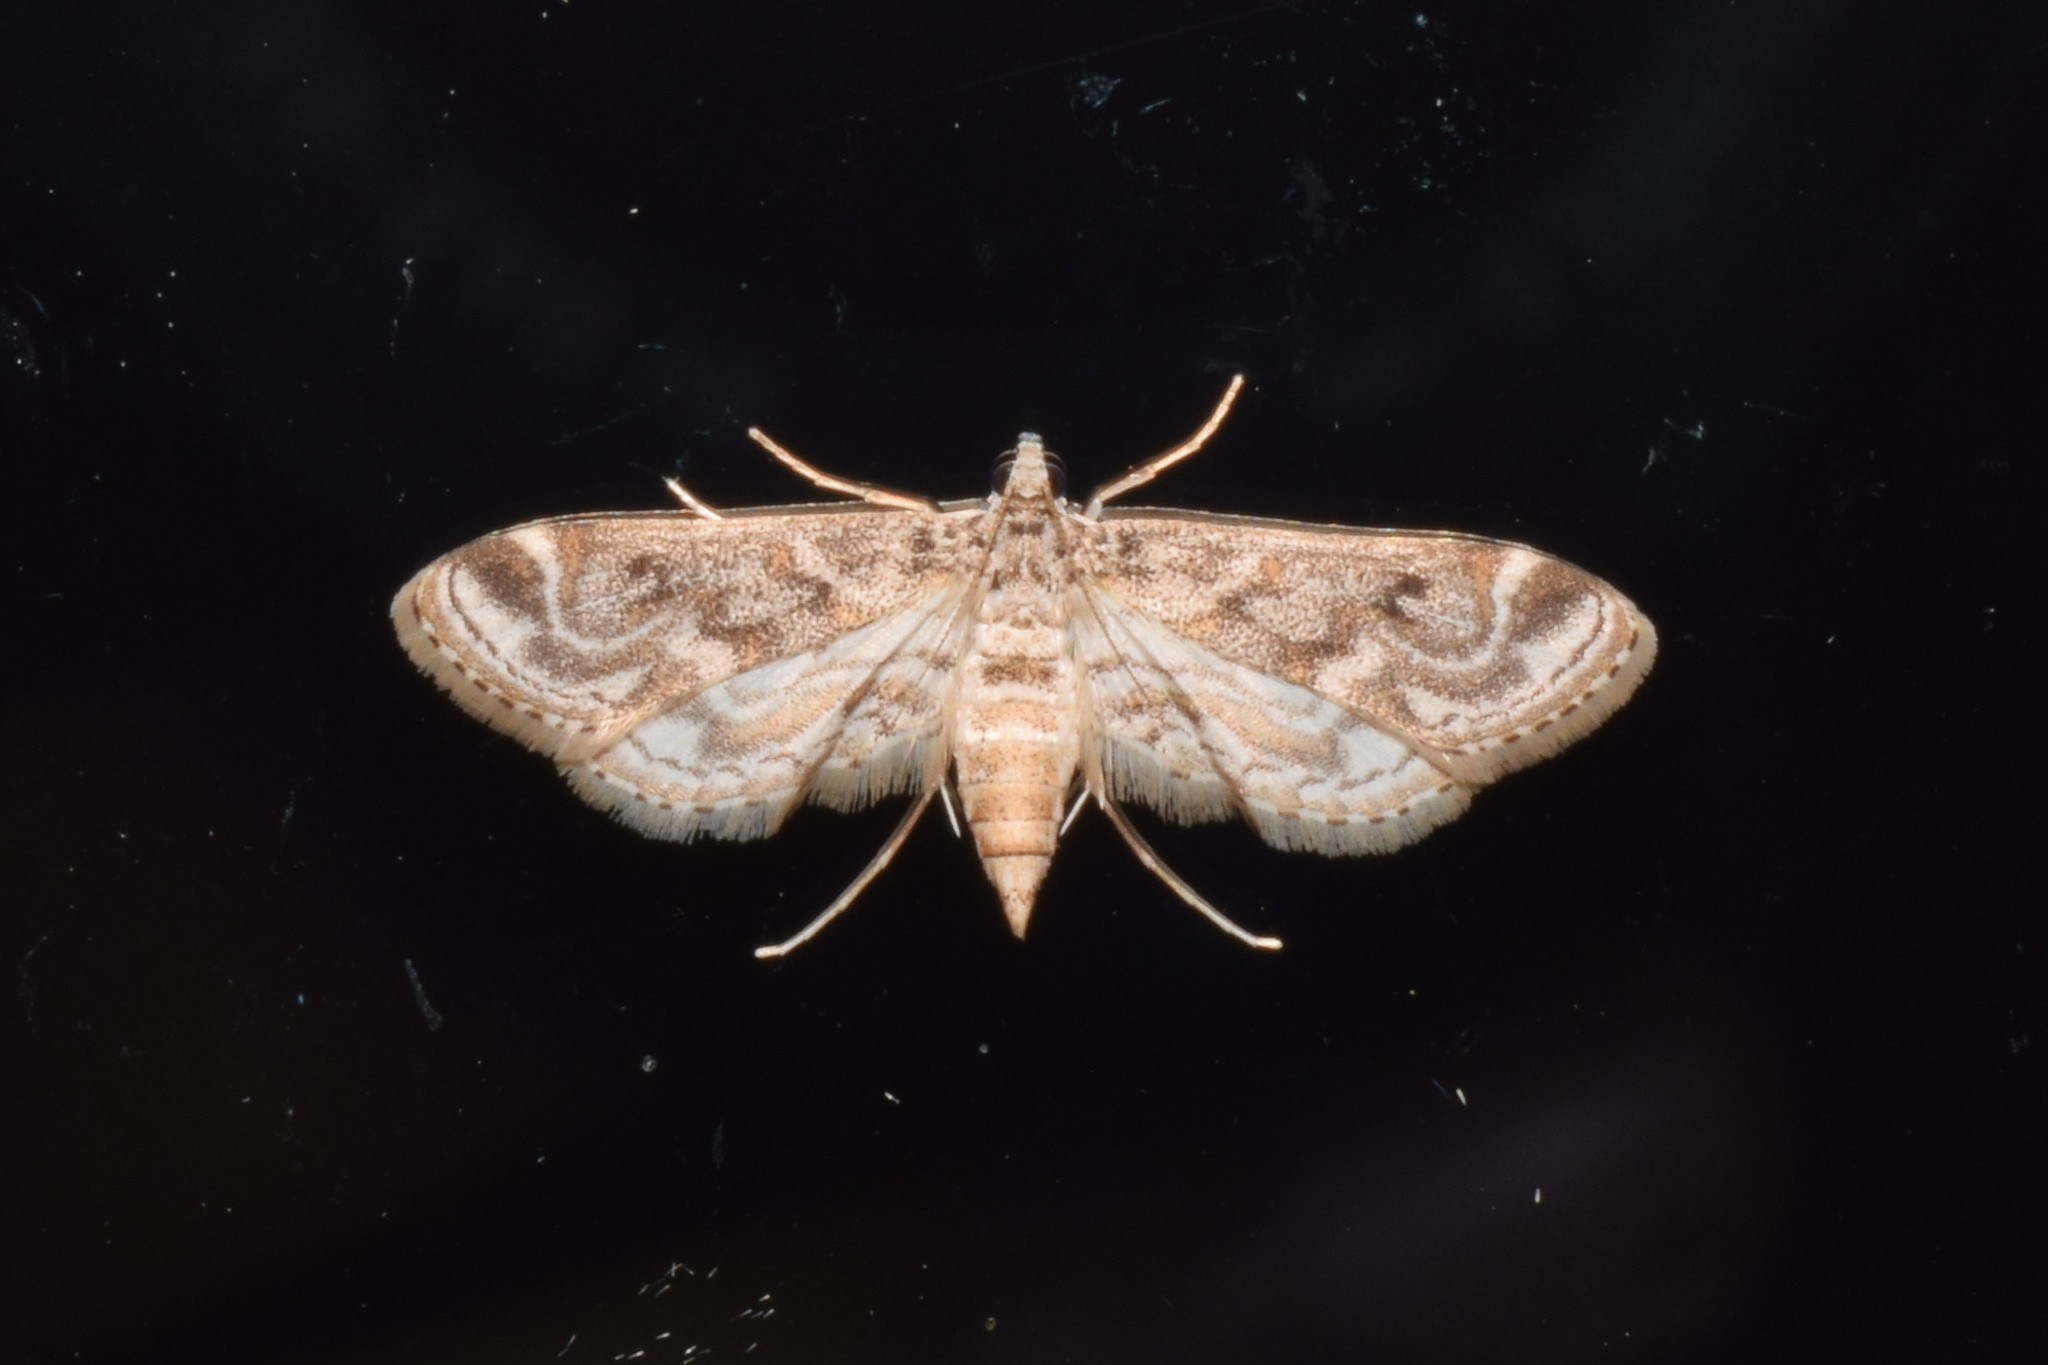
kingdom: Animalia
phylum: Arthropoda
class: Insecta
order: Lepidoptera
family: Crambidae
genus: Parapoynx
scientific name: Parapoynx diminutalis
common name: Hydrilla leafcutter
